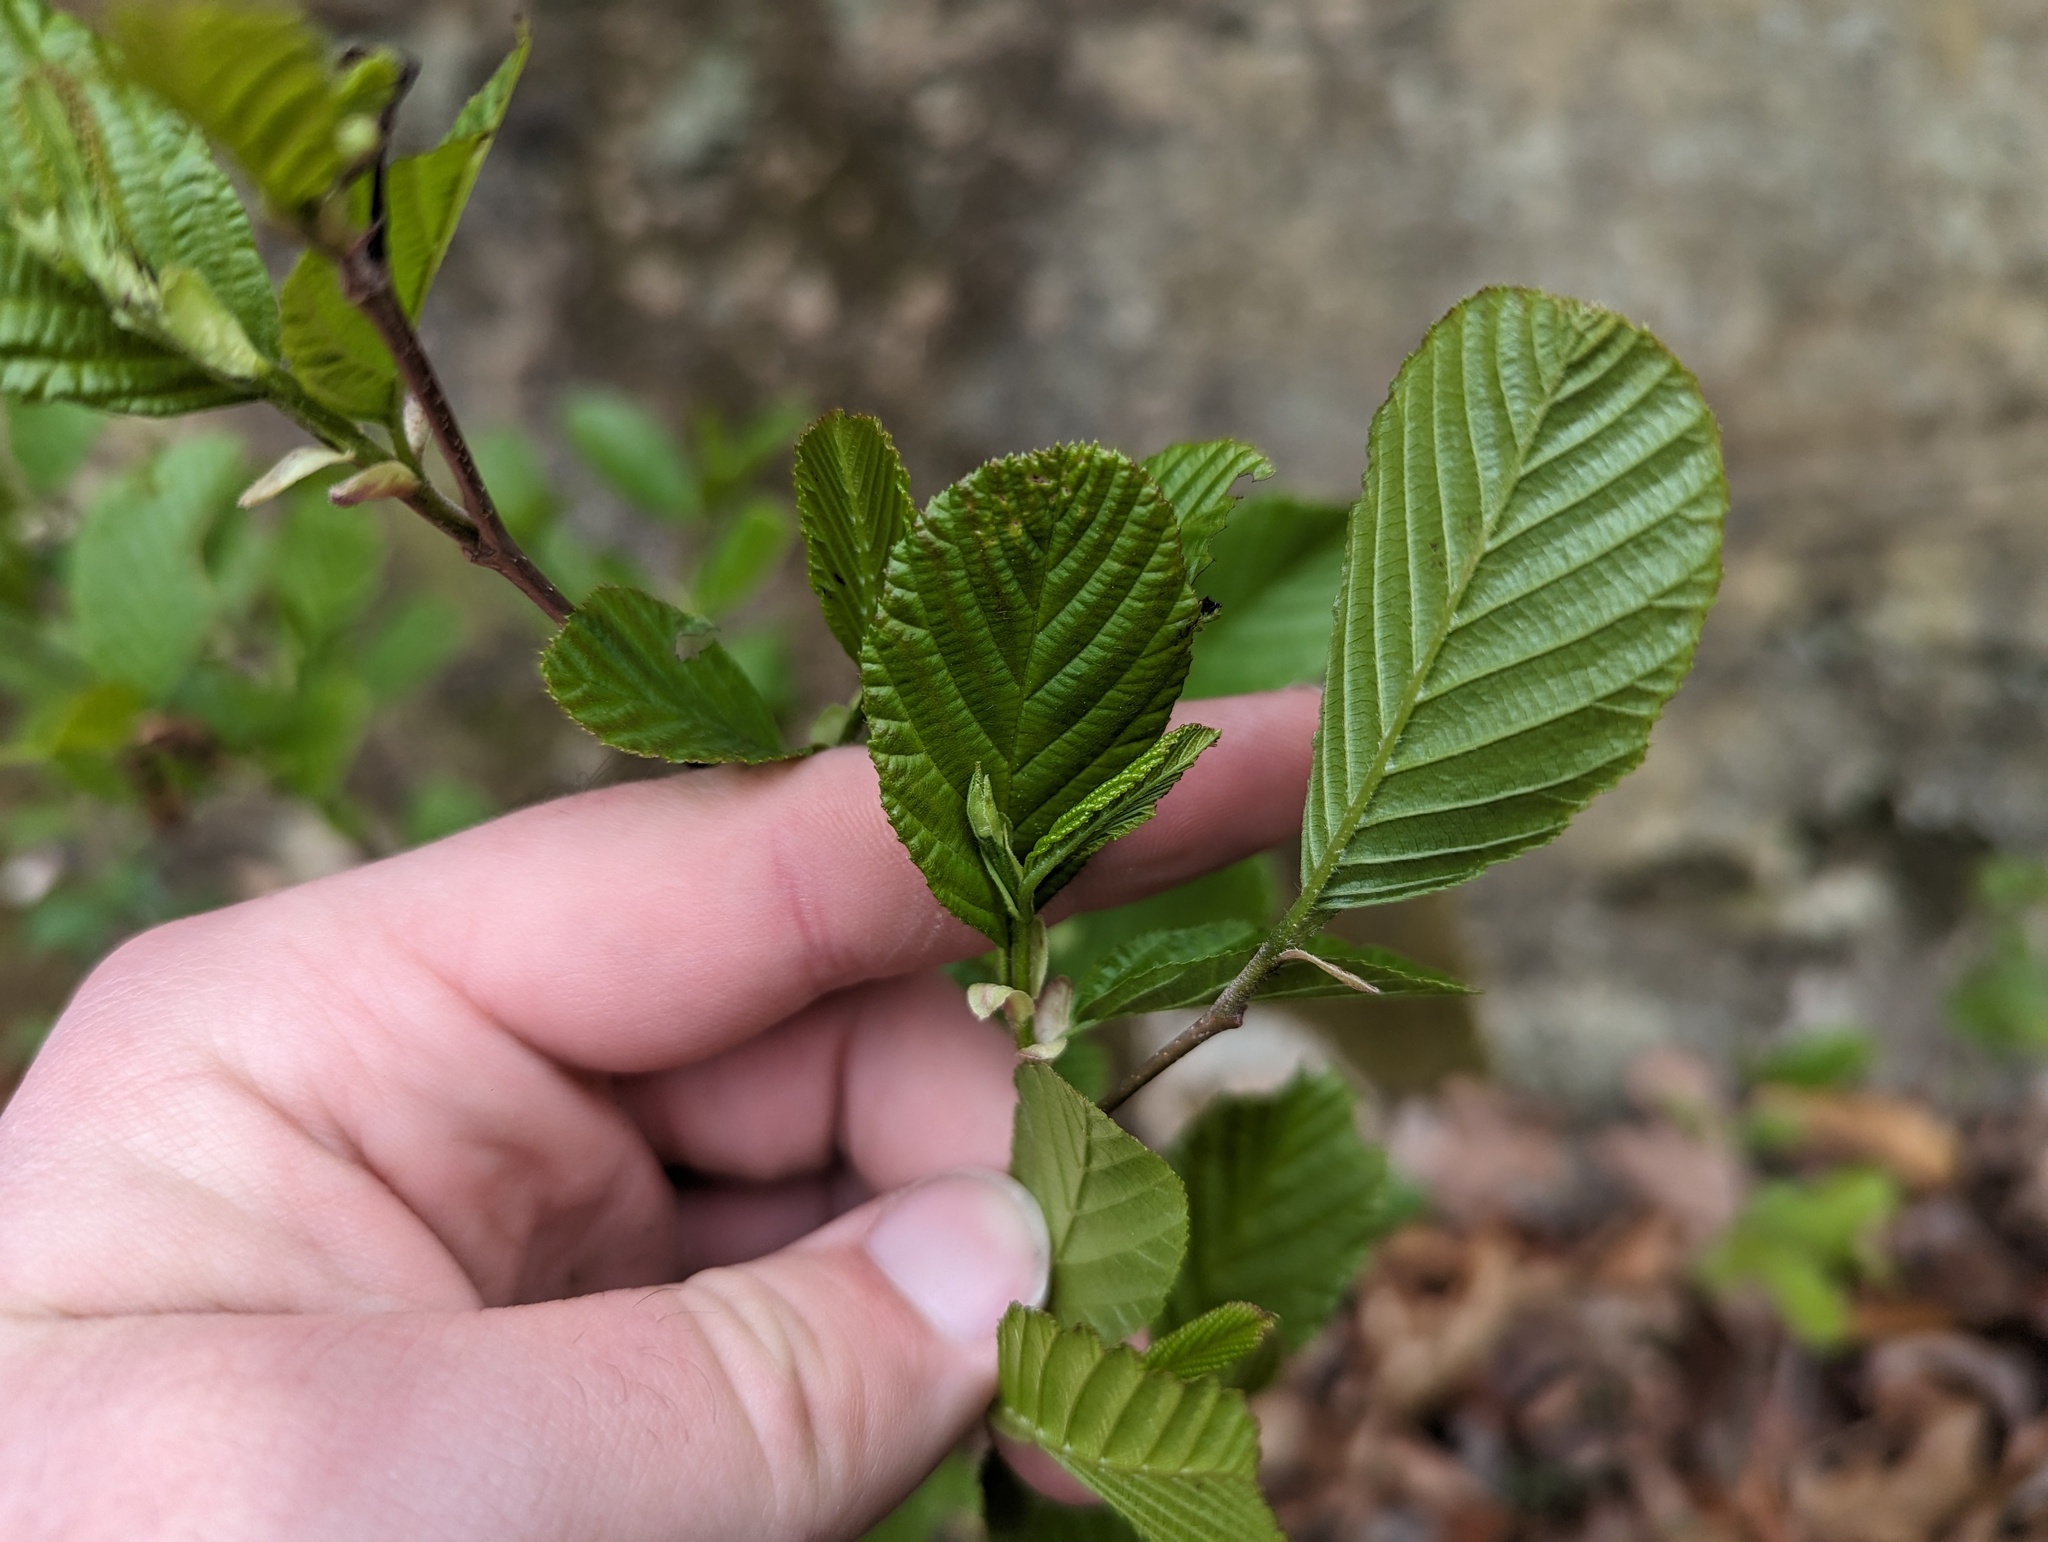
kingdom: Plantae
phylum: Tracheophyta
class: Magnoliopsida
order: Fagales
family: Betulaceae
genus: Alnus
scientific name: Alnus serrulata
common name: Hazel alder
